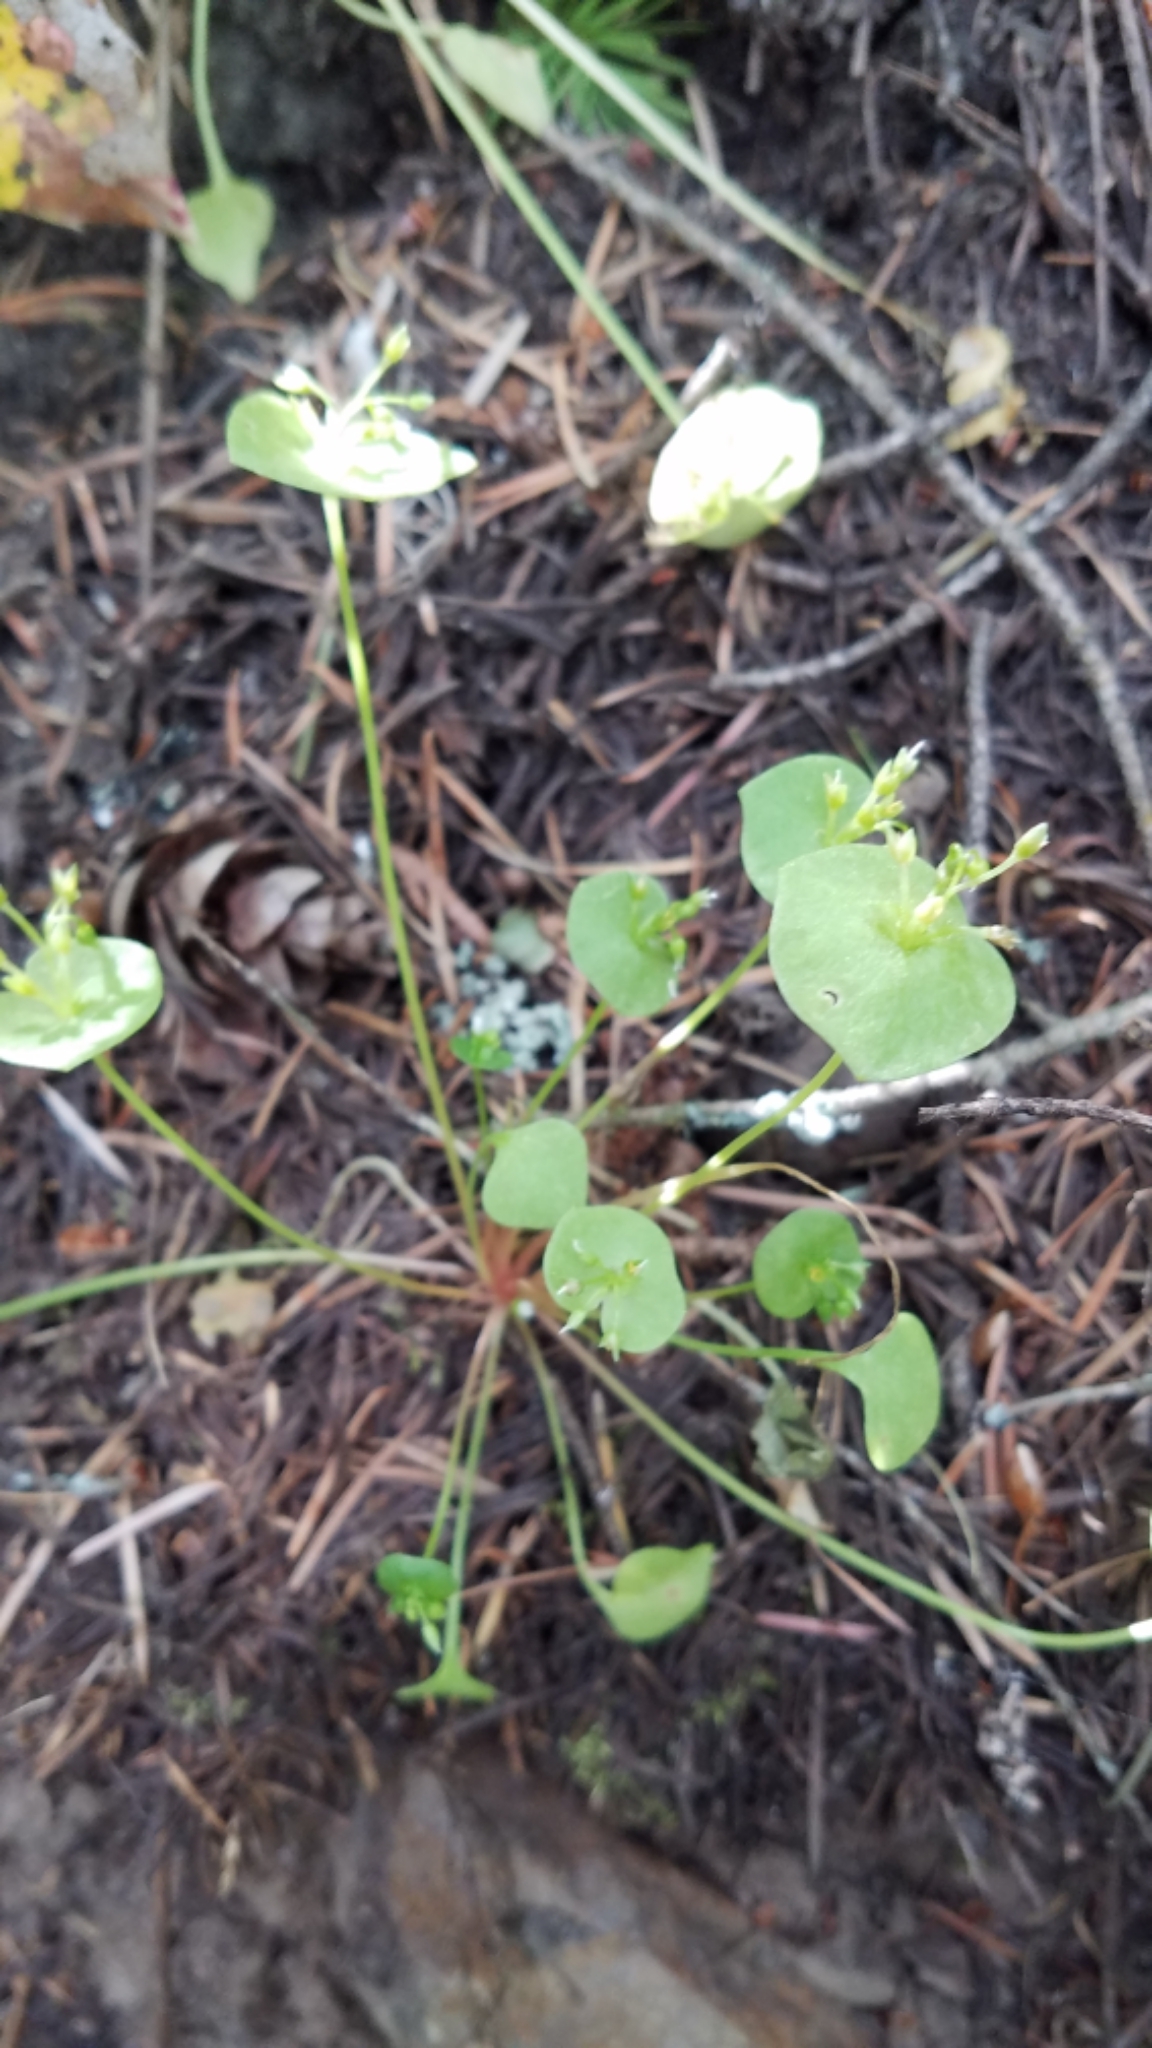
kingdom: Plantae
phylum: Tracheophyta
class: Magnoliopsida
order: Caryophyllales
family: Montiaceae
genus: Claytonia
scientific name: Claytonia perfoliata
